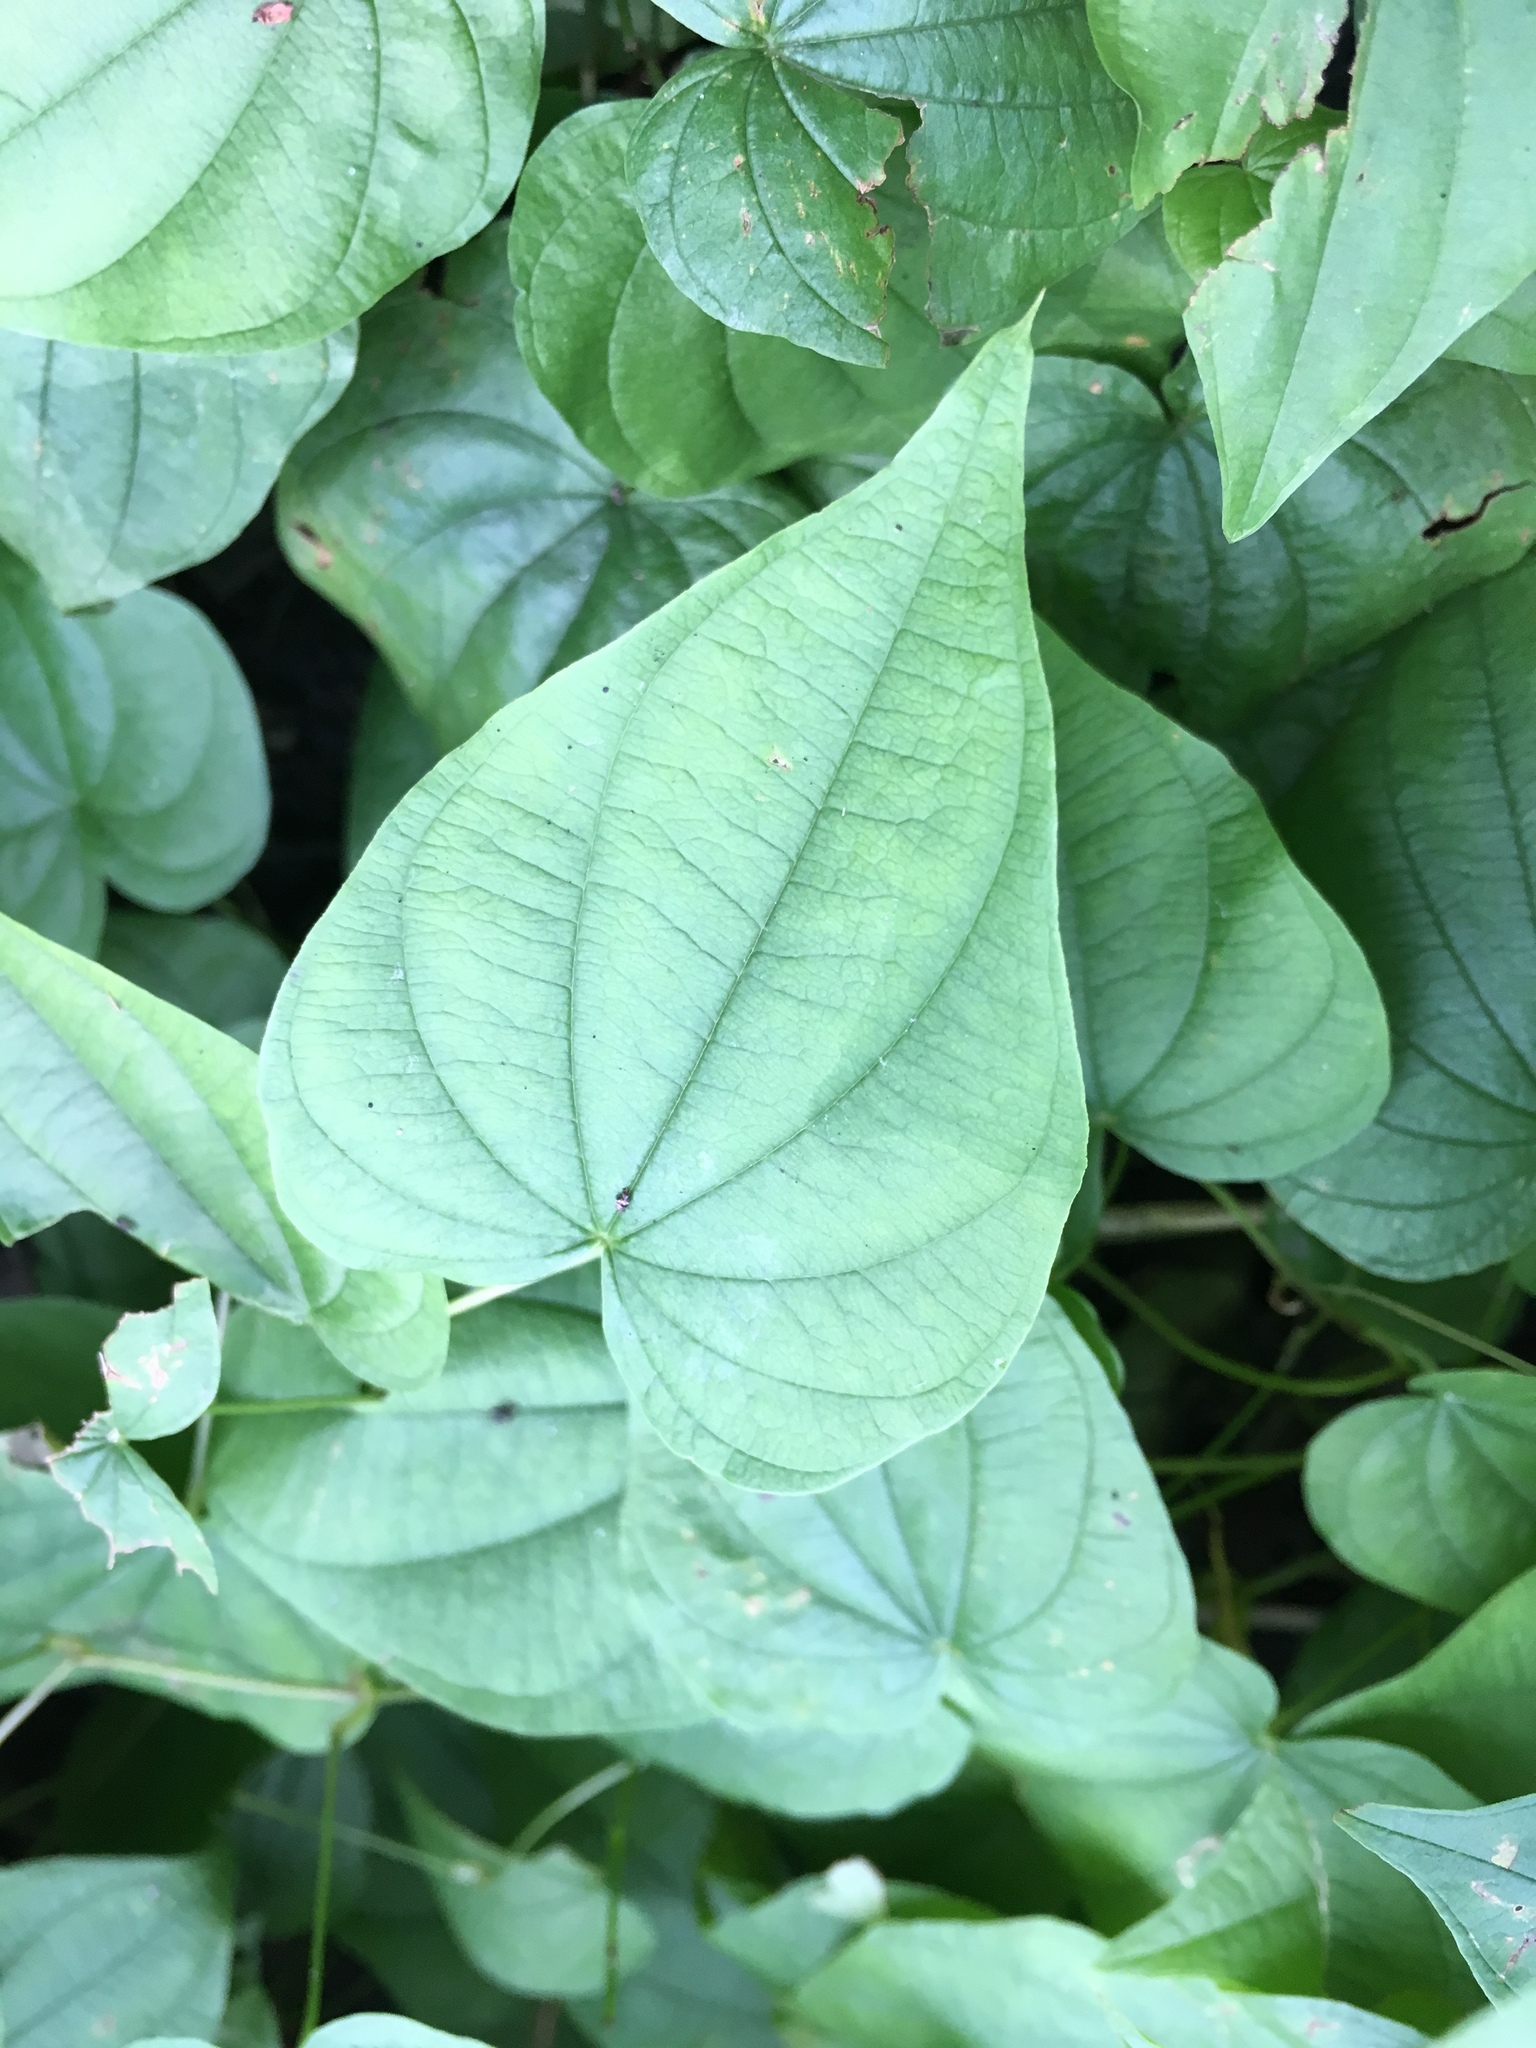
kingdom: Plantae
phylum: Tracheophyta
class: Liliopsida
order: Dioscoreales
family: Dioscoreaceae
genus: Dioscorea
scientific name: Dioscorea villosa
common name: Wild yam
